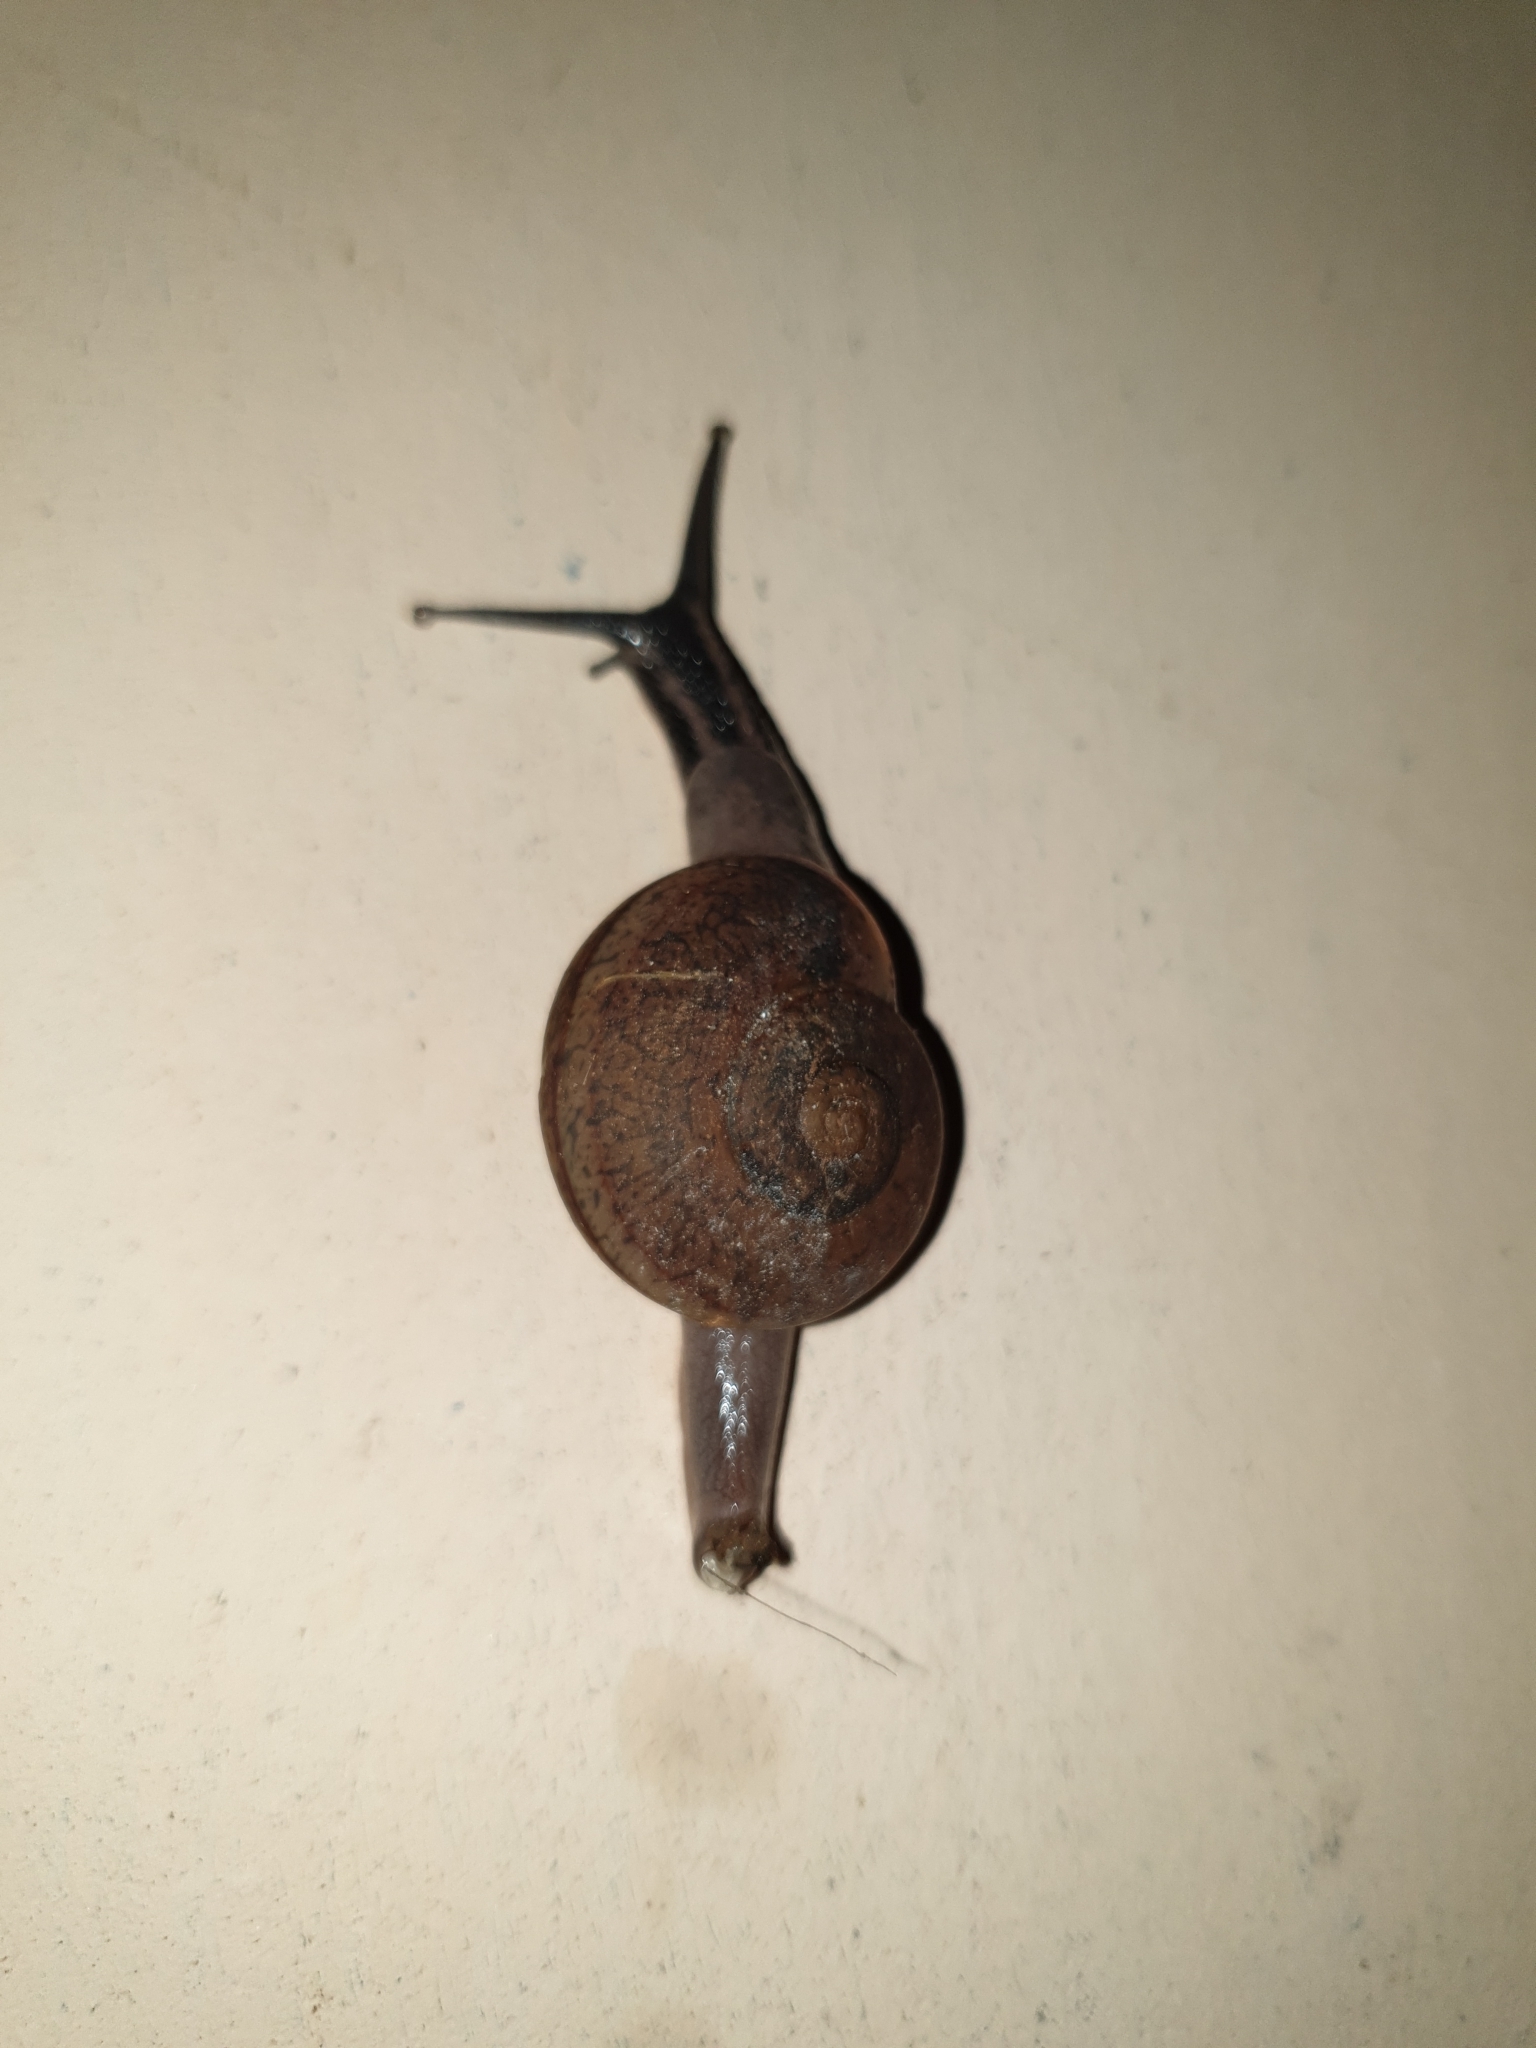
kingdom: Animalia
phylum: Mollusca
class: Gastropoda
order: Stylommatophora
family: Ariophantidae
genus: Ariophanta
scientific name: Ariophanta exilis
